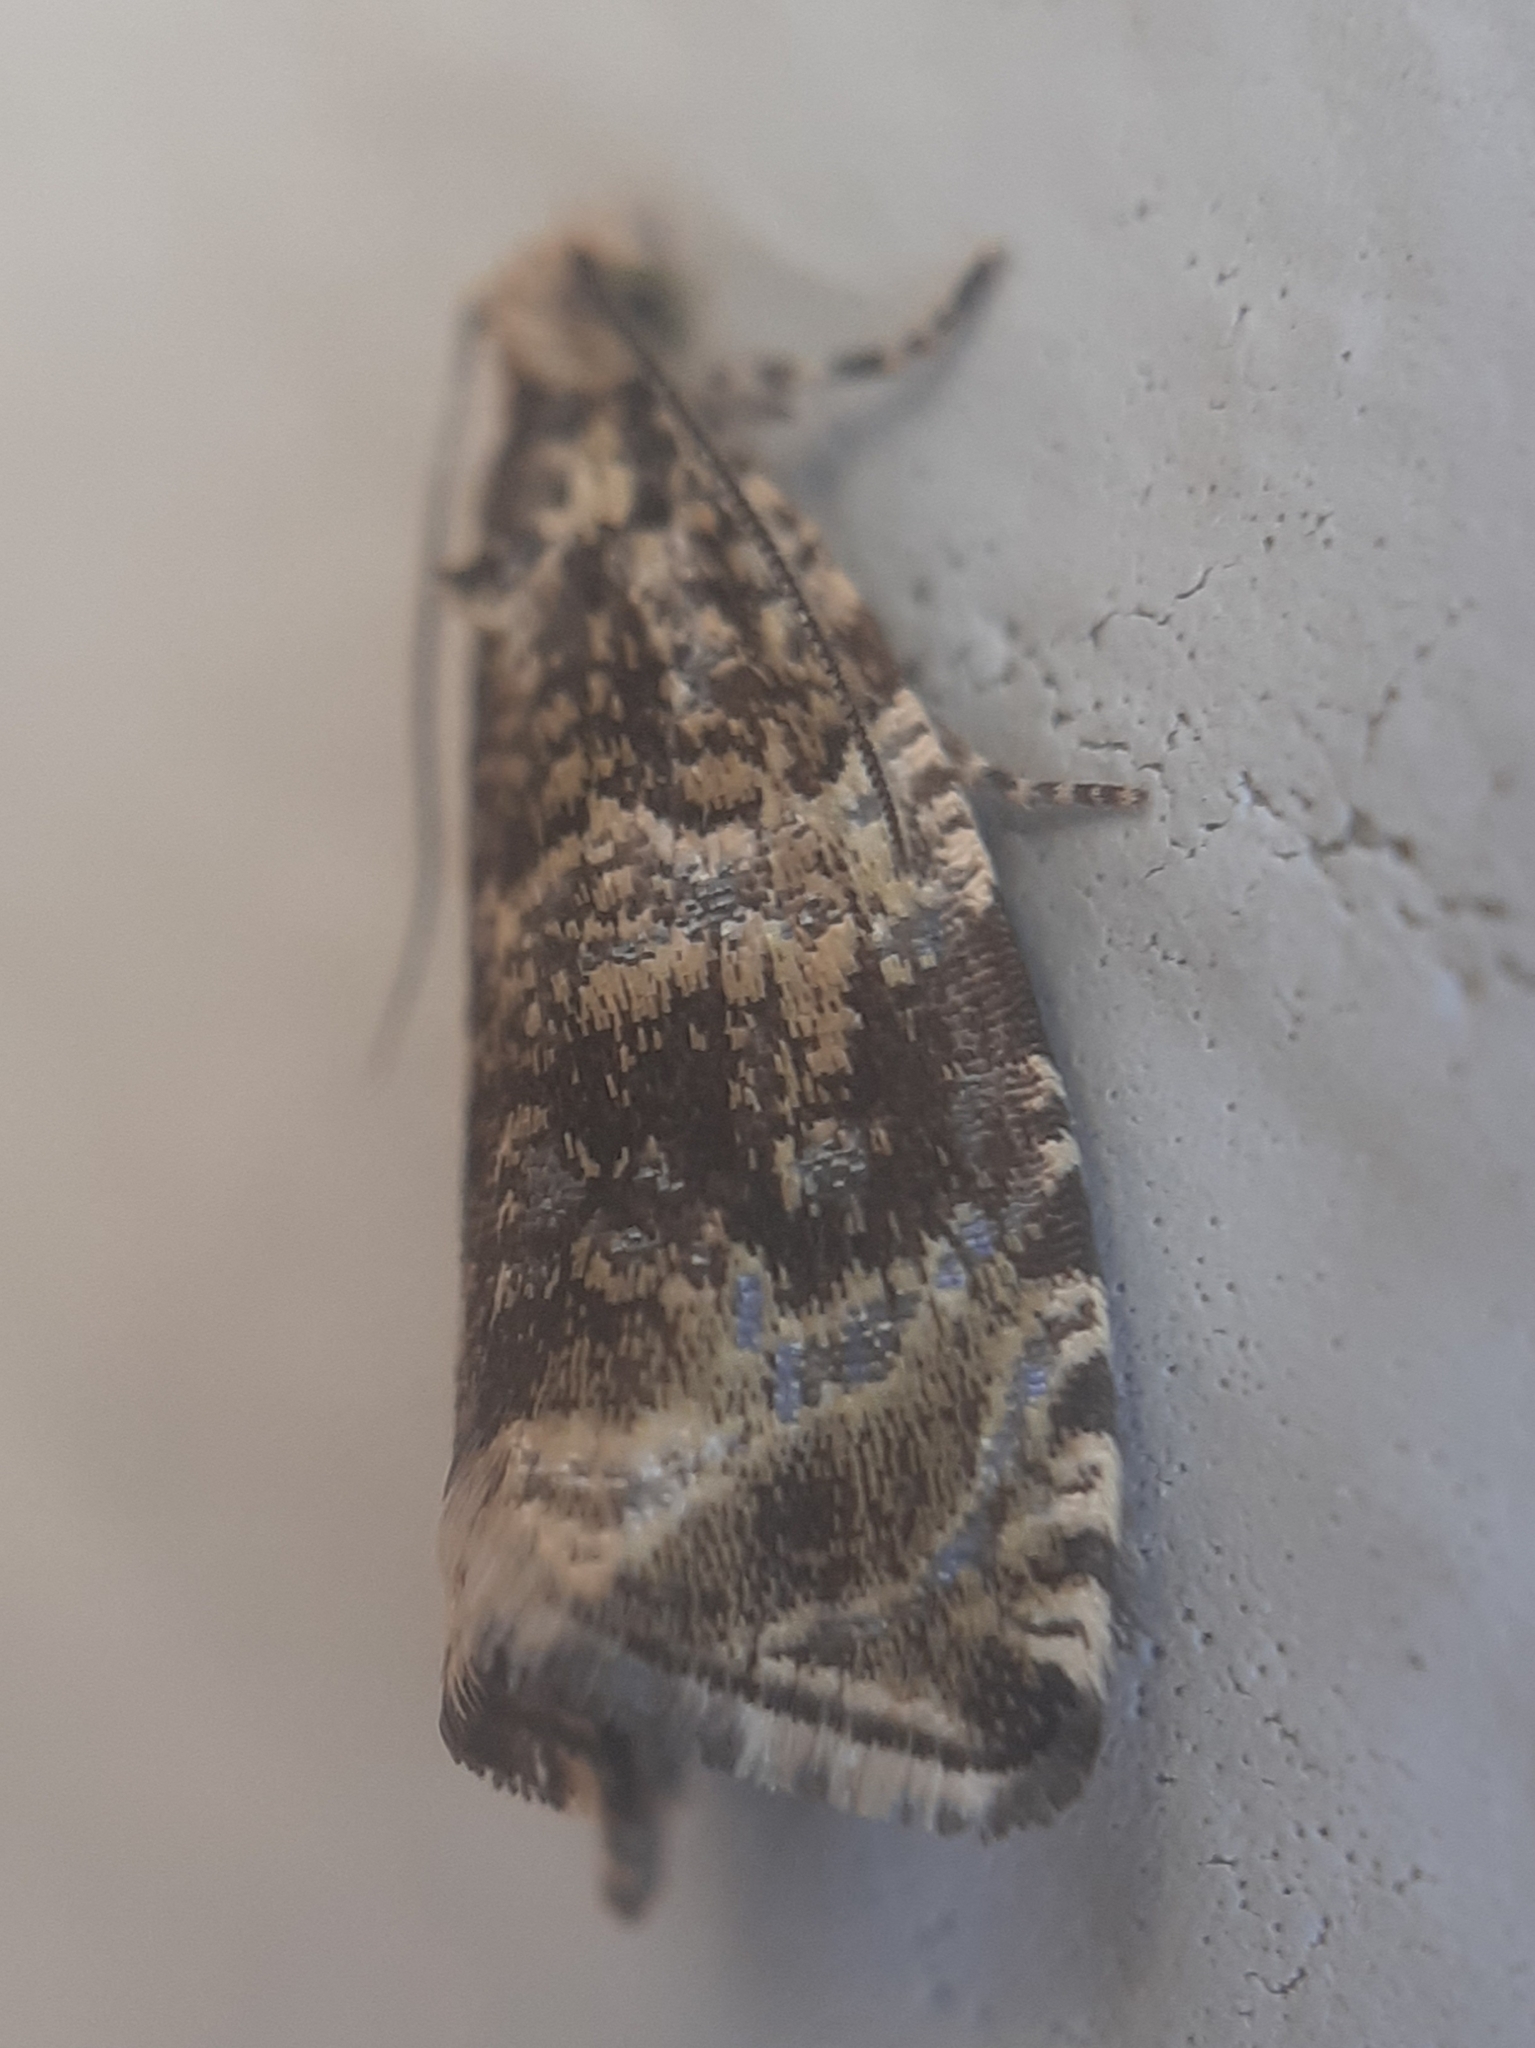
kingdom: Animalia
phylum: Arthropoda
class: Insecta
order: Lepidoptera
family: Tortricidae
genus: Syricoris
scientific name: Syricoris lacunana
